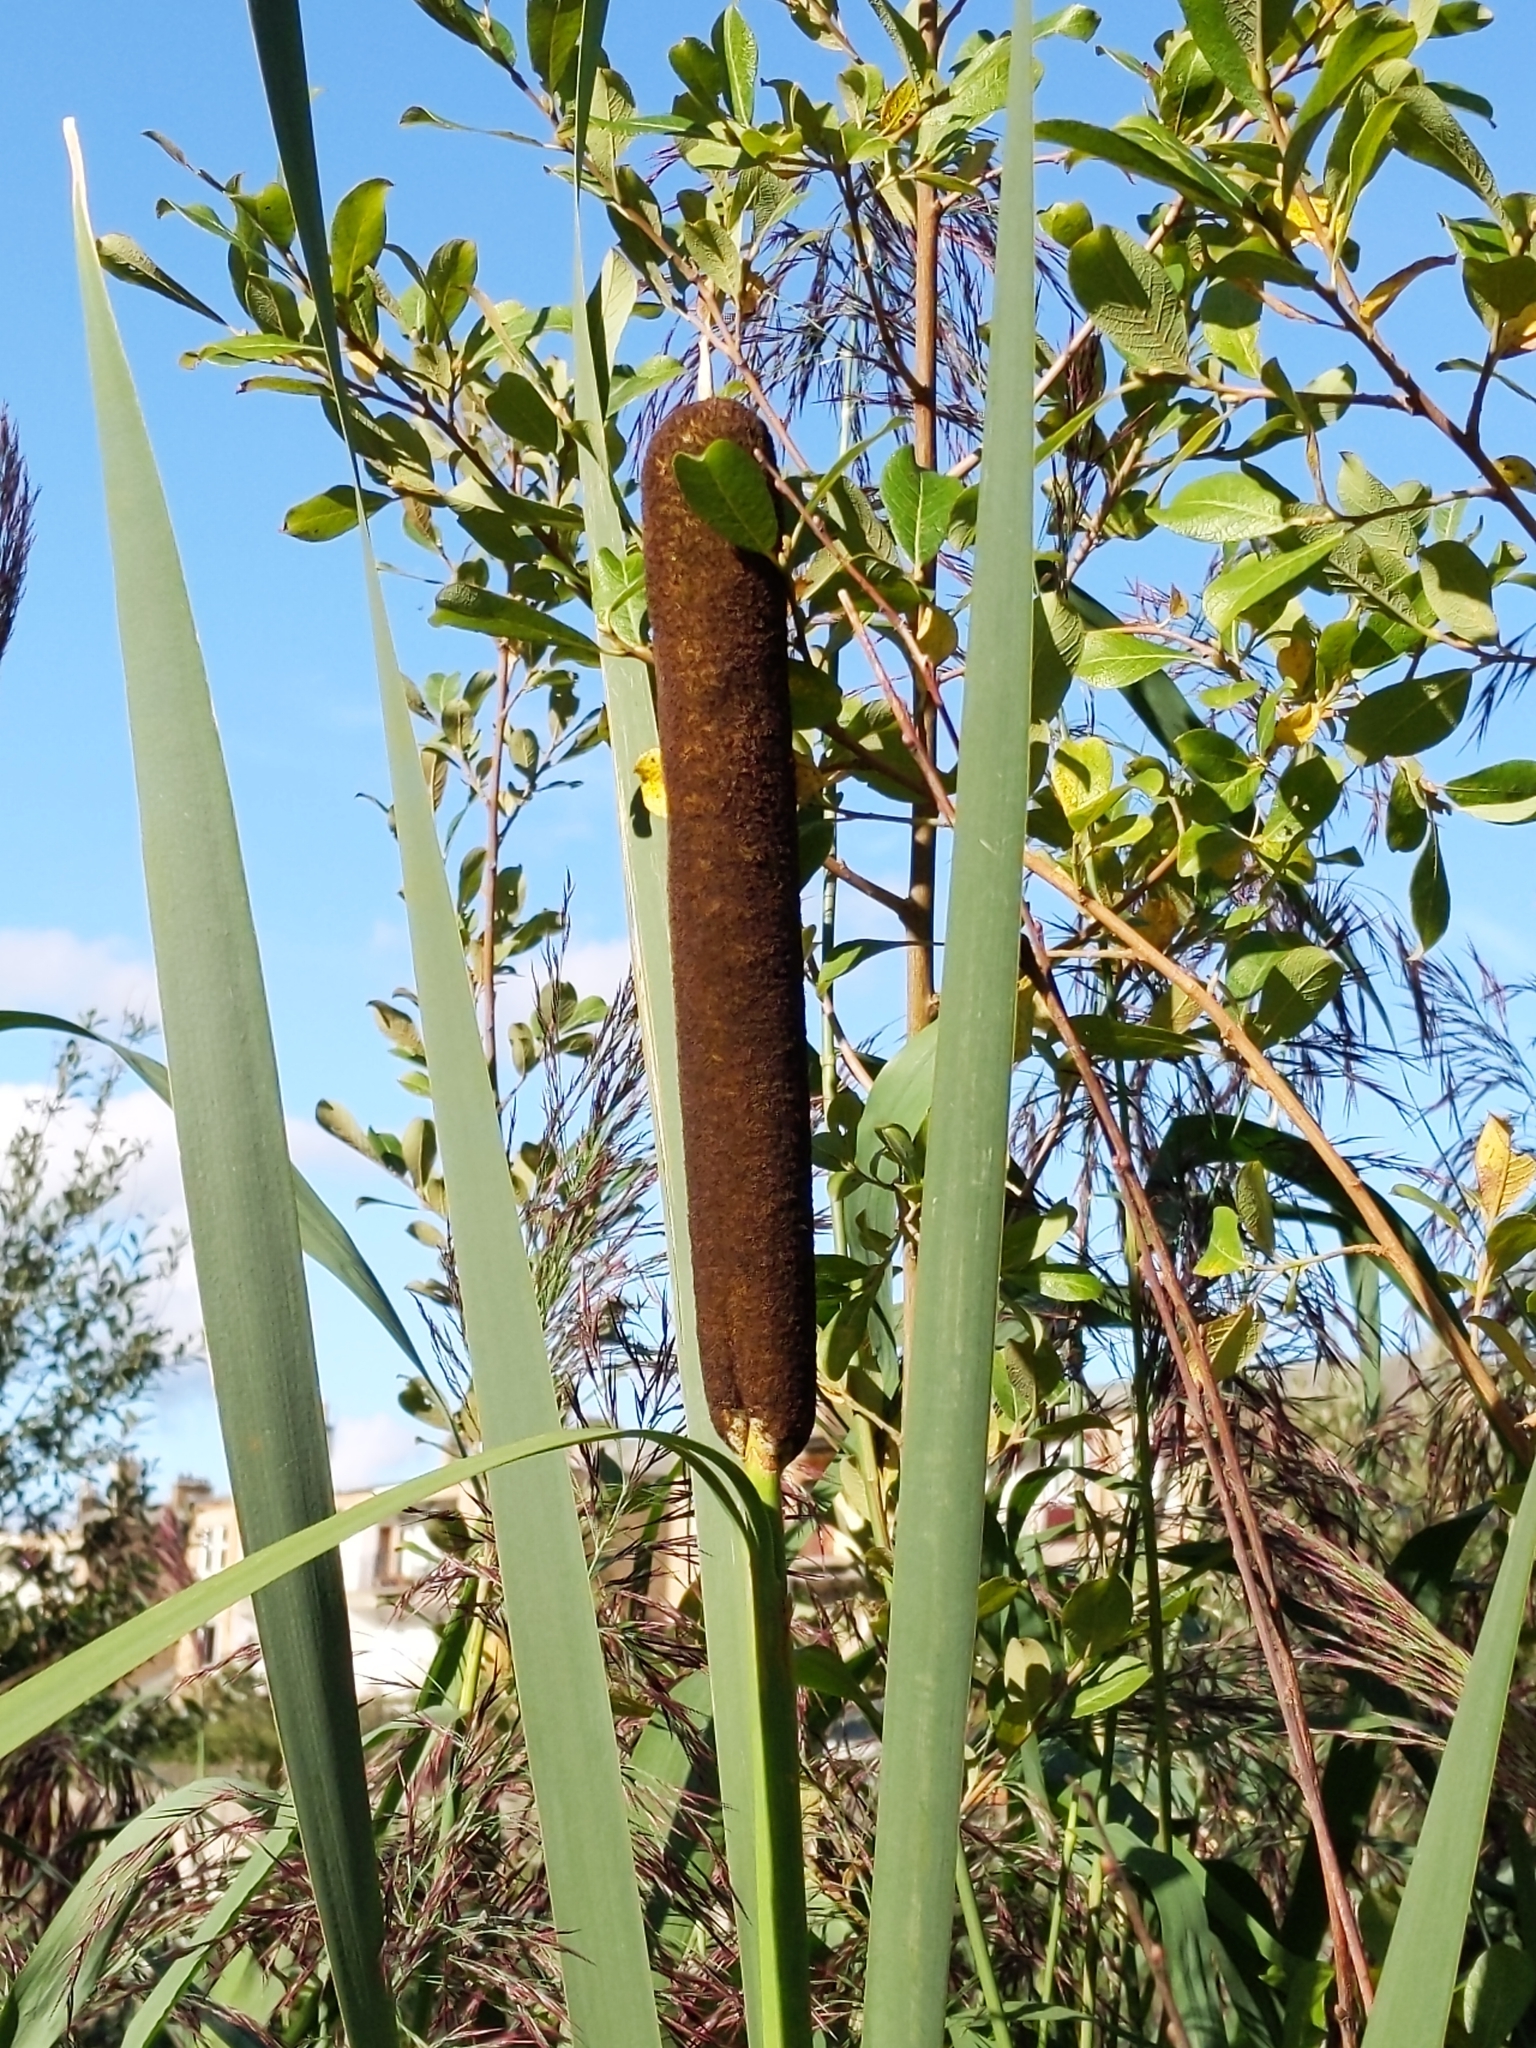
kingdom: Plantae
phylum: Tracheophyta
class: Liliopsida
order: Poales
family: Typhaceae
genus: Typha
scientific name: Typha latifolia
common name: Broadleaf cattail
